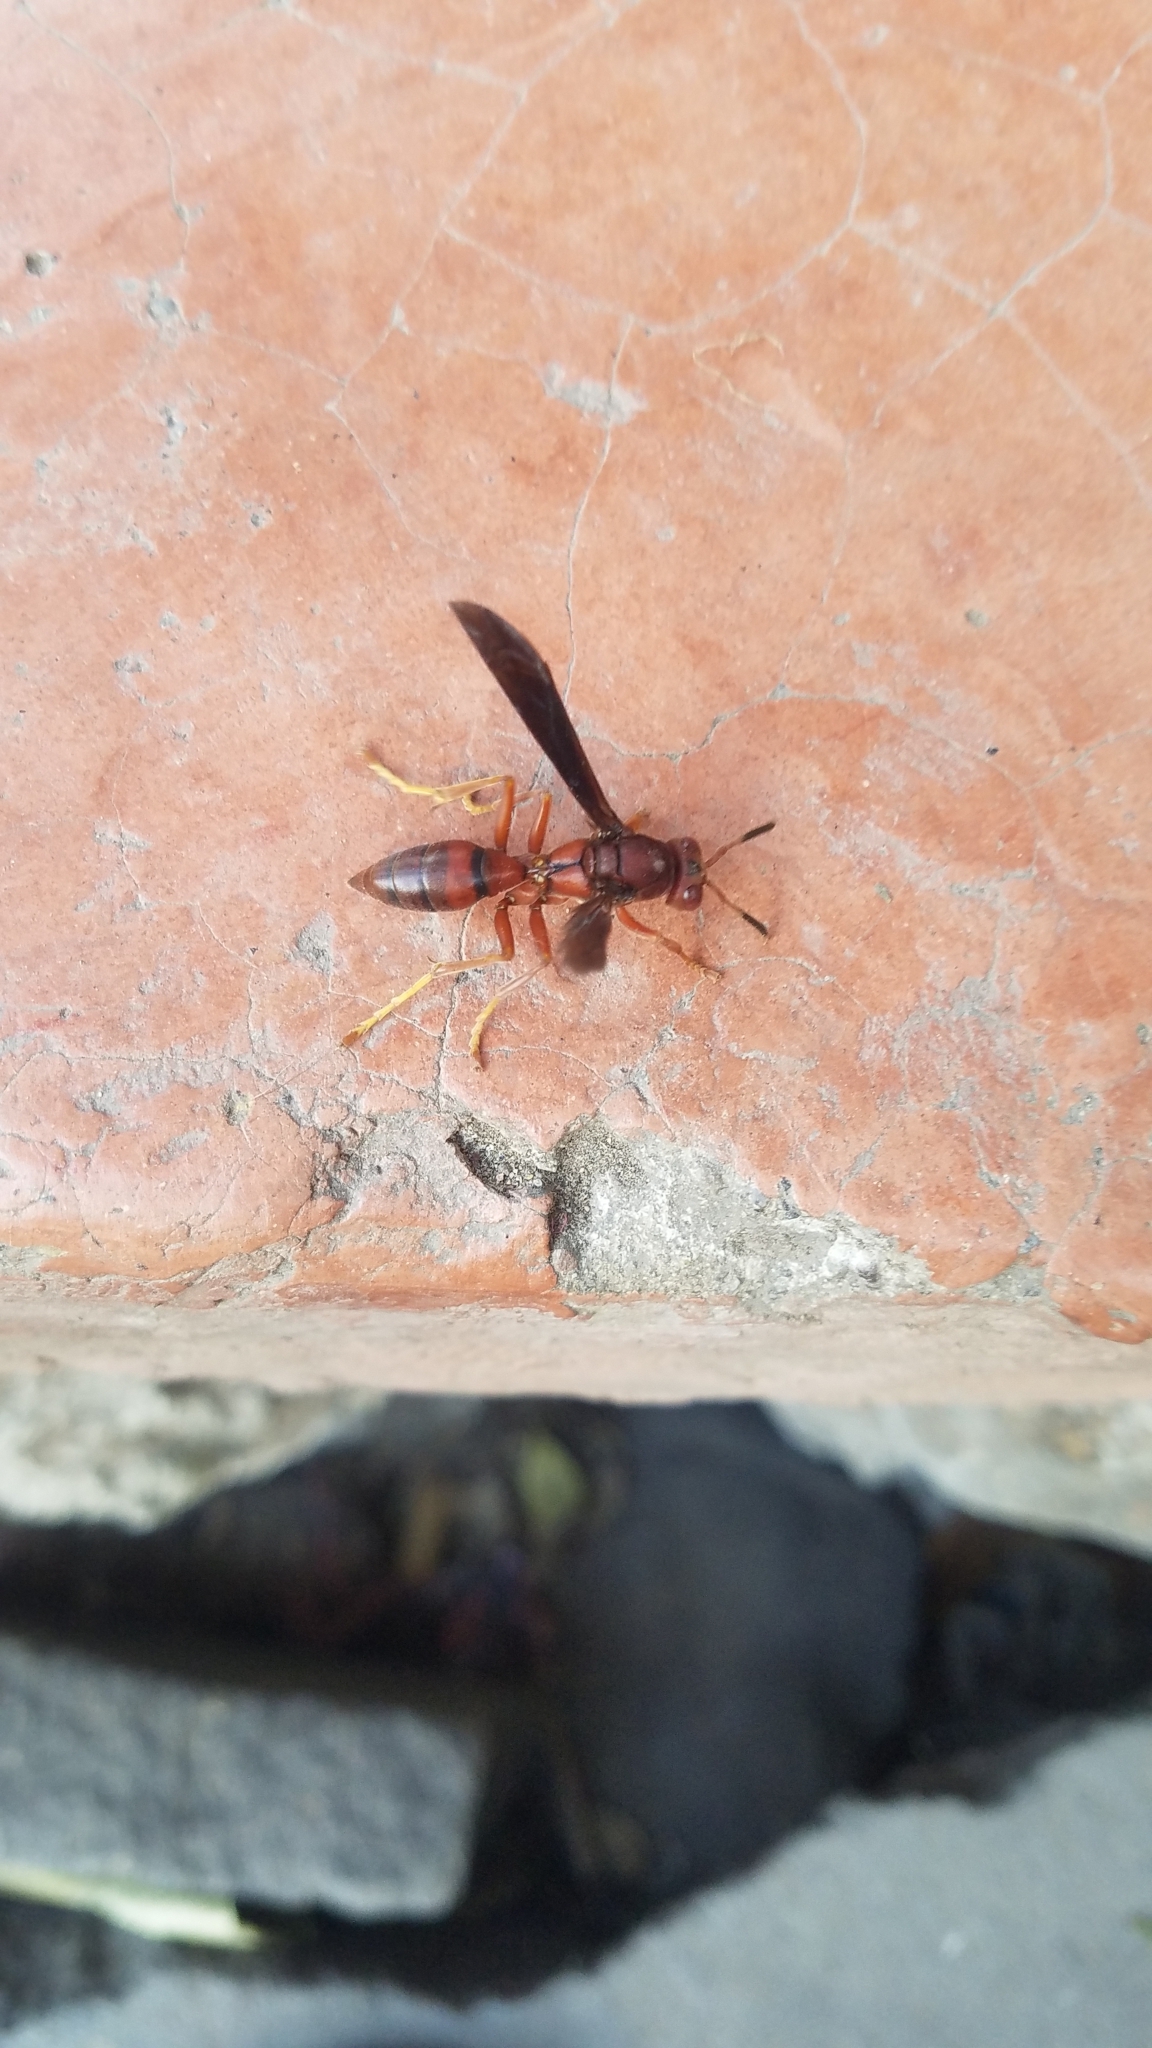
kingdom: Animalia
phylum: Arthropoda
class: Insecta
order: Hymenoptera
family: Eumenidae
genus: Polistes
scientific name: Polistes lanio
